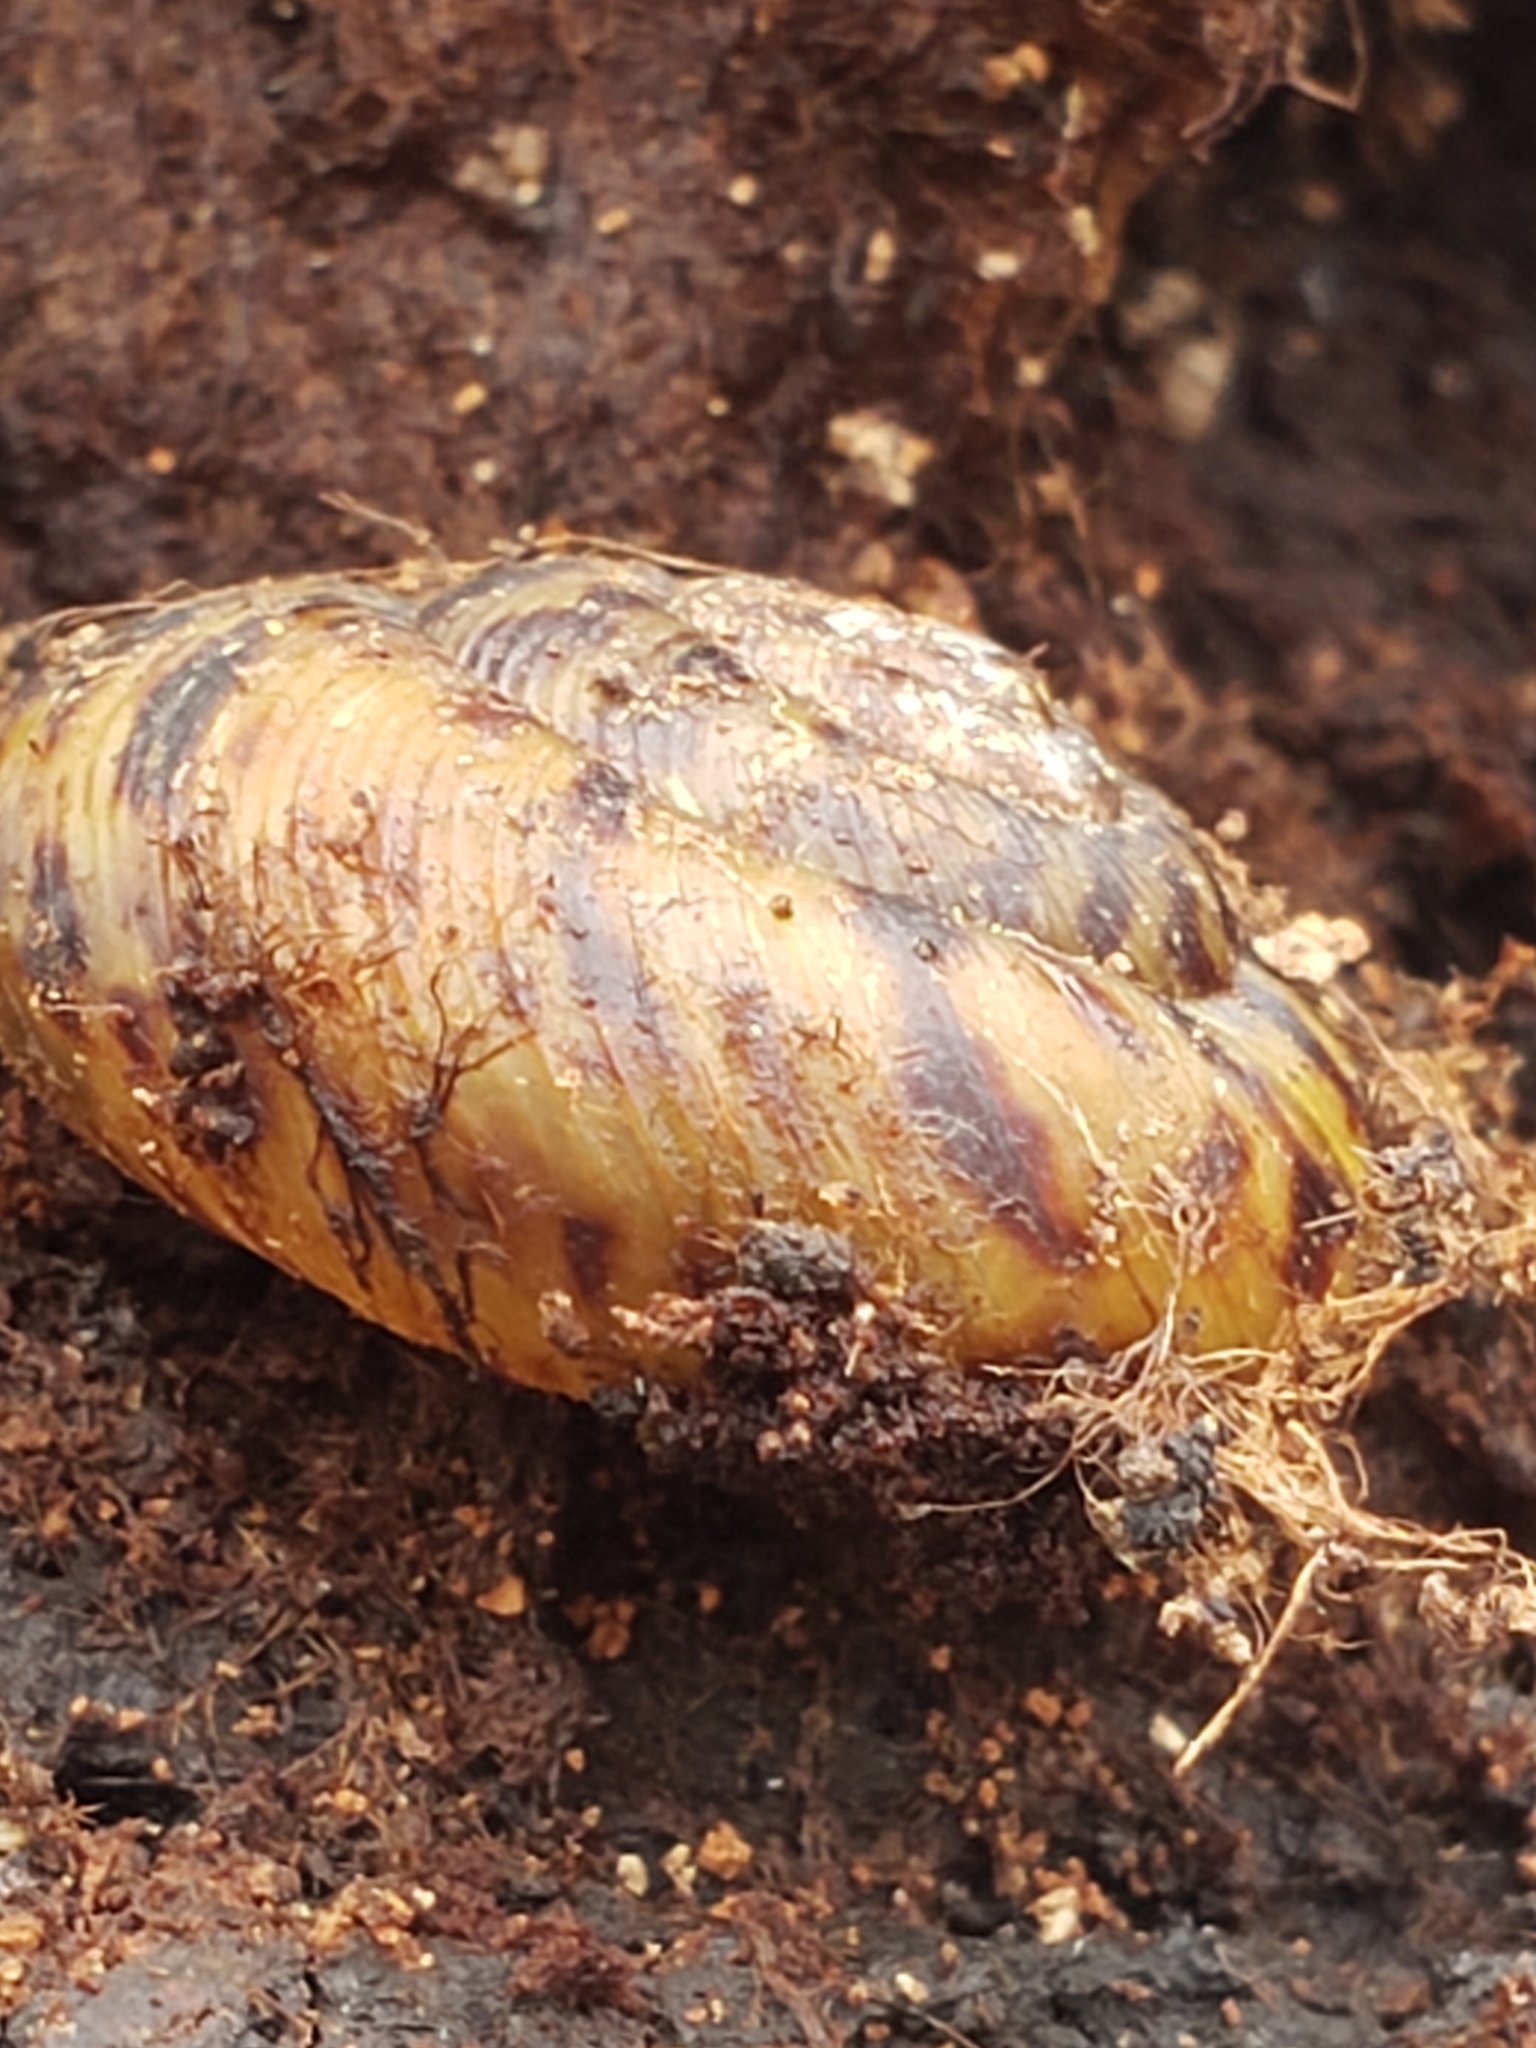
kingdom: Animalia
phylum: Mollusca
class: Gastropoda
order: Stylommatophora
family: Discidae
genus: Anguispira
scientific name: Anguispira fergusoni
